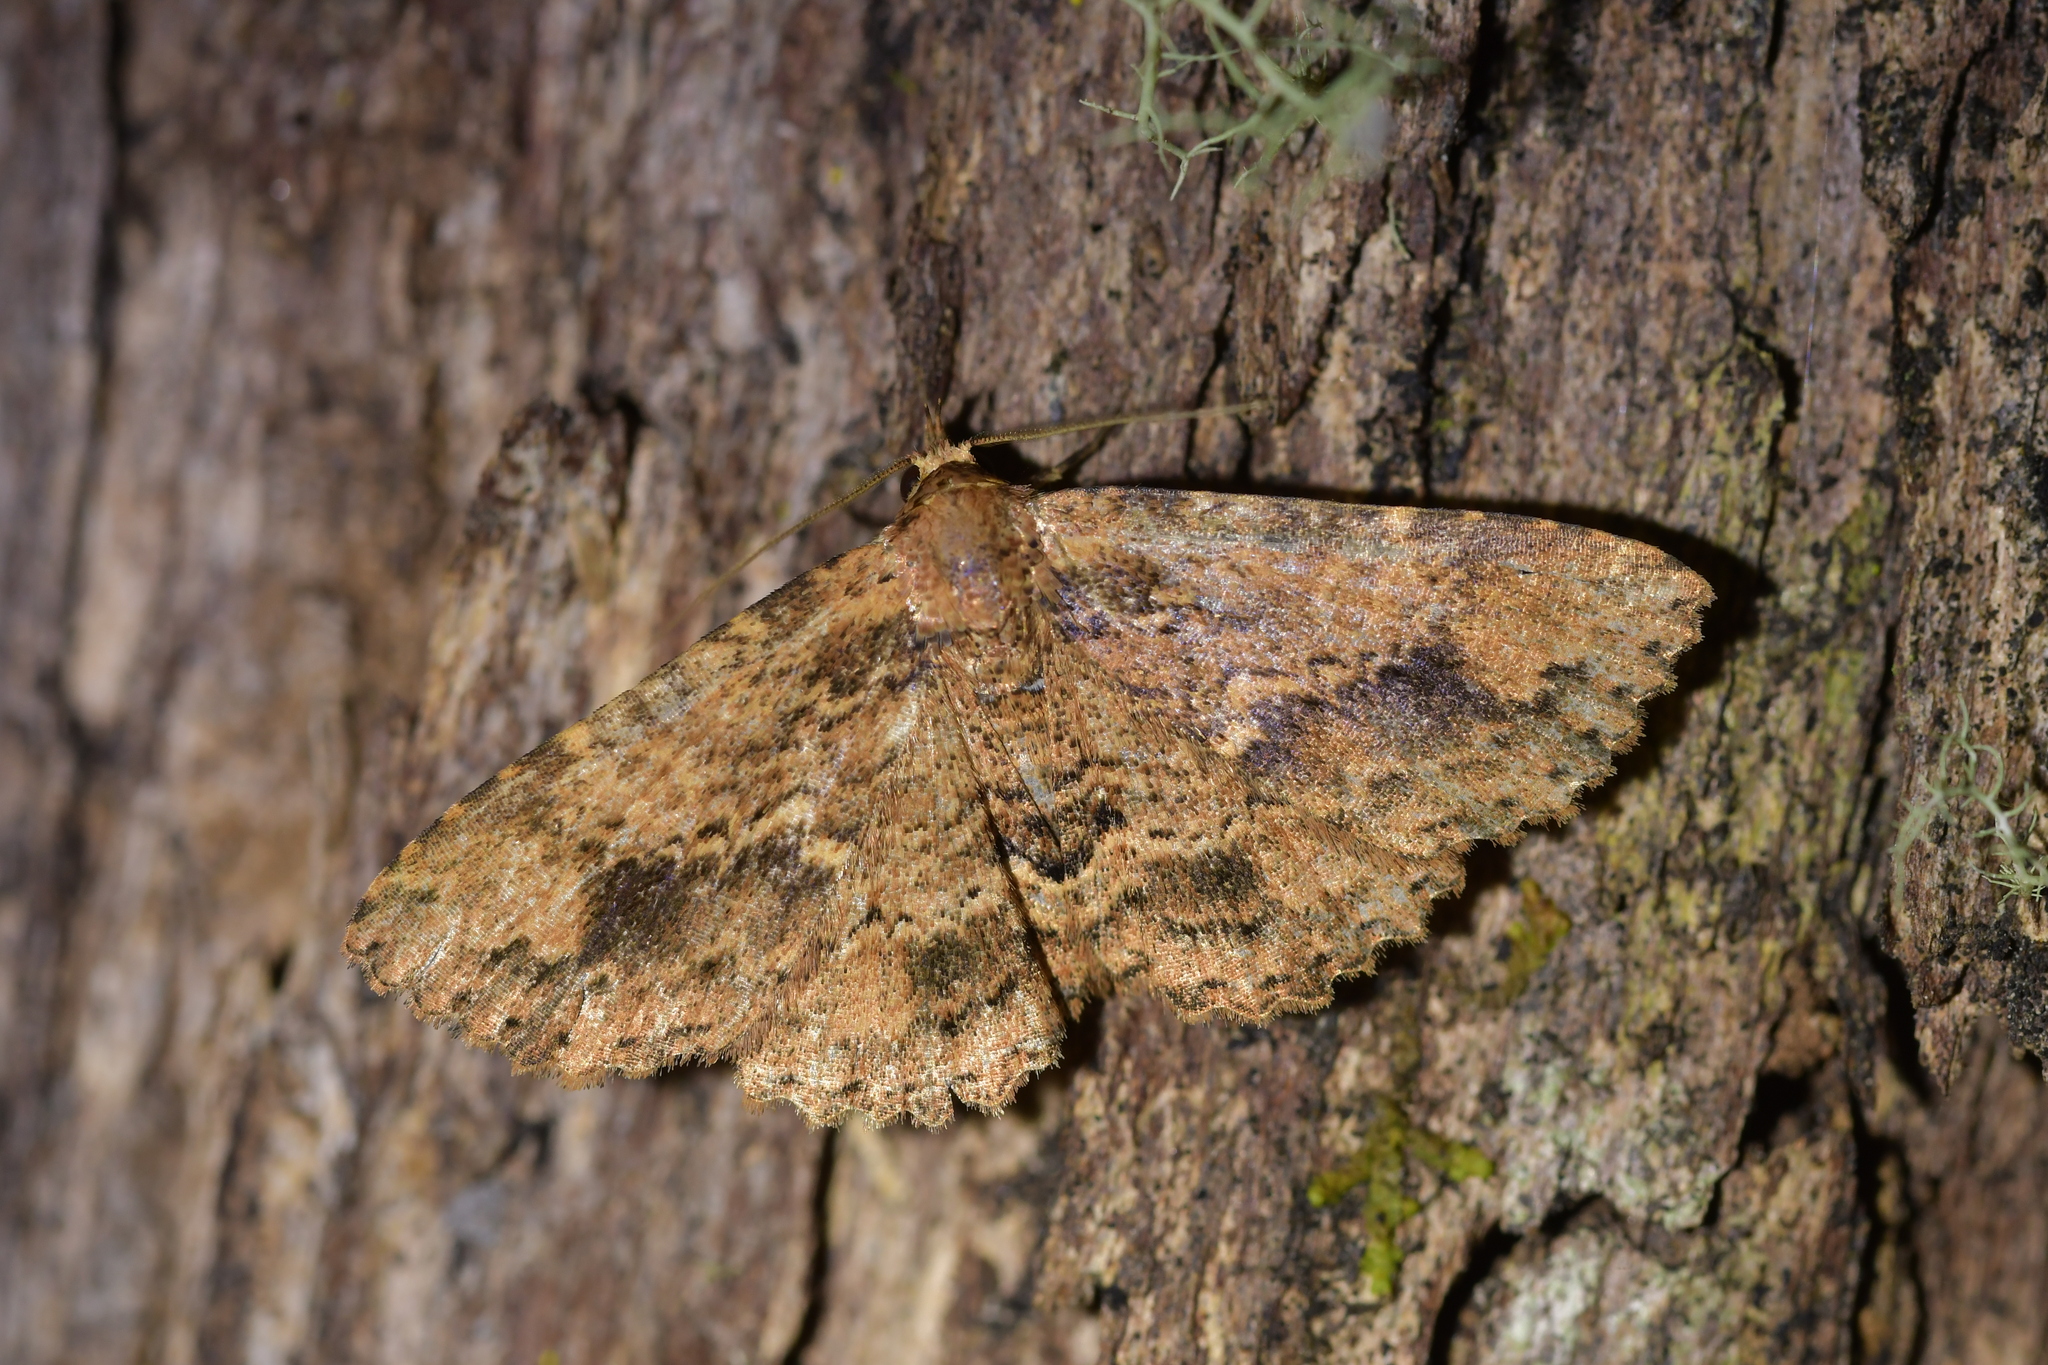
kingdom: Animalia
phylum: Arthropoda
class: Insecta
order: Lepidoptera
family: Erebidae
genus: Artigisa
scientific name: Artigisa melanephele
